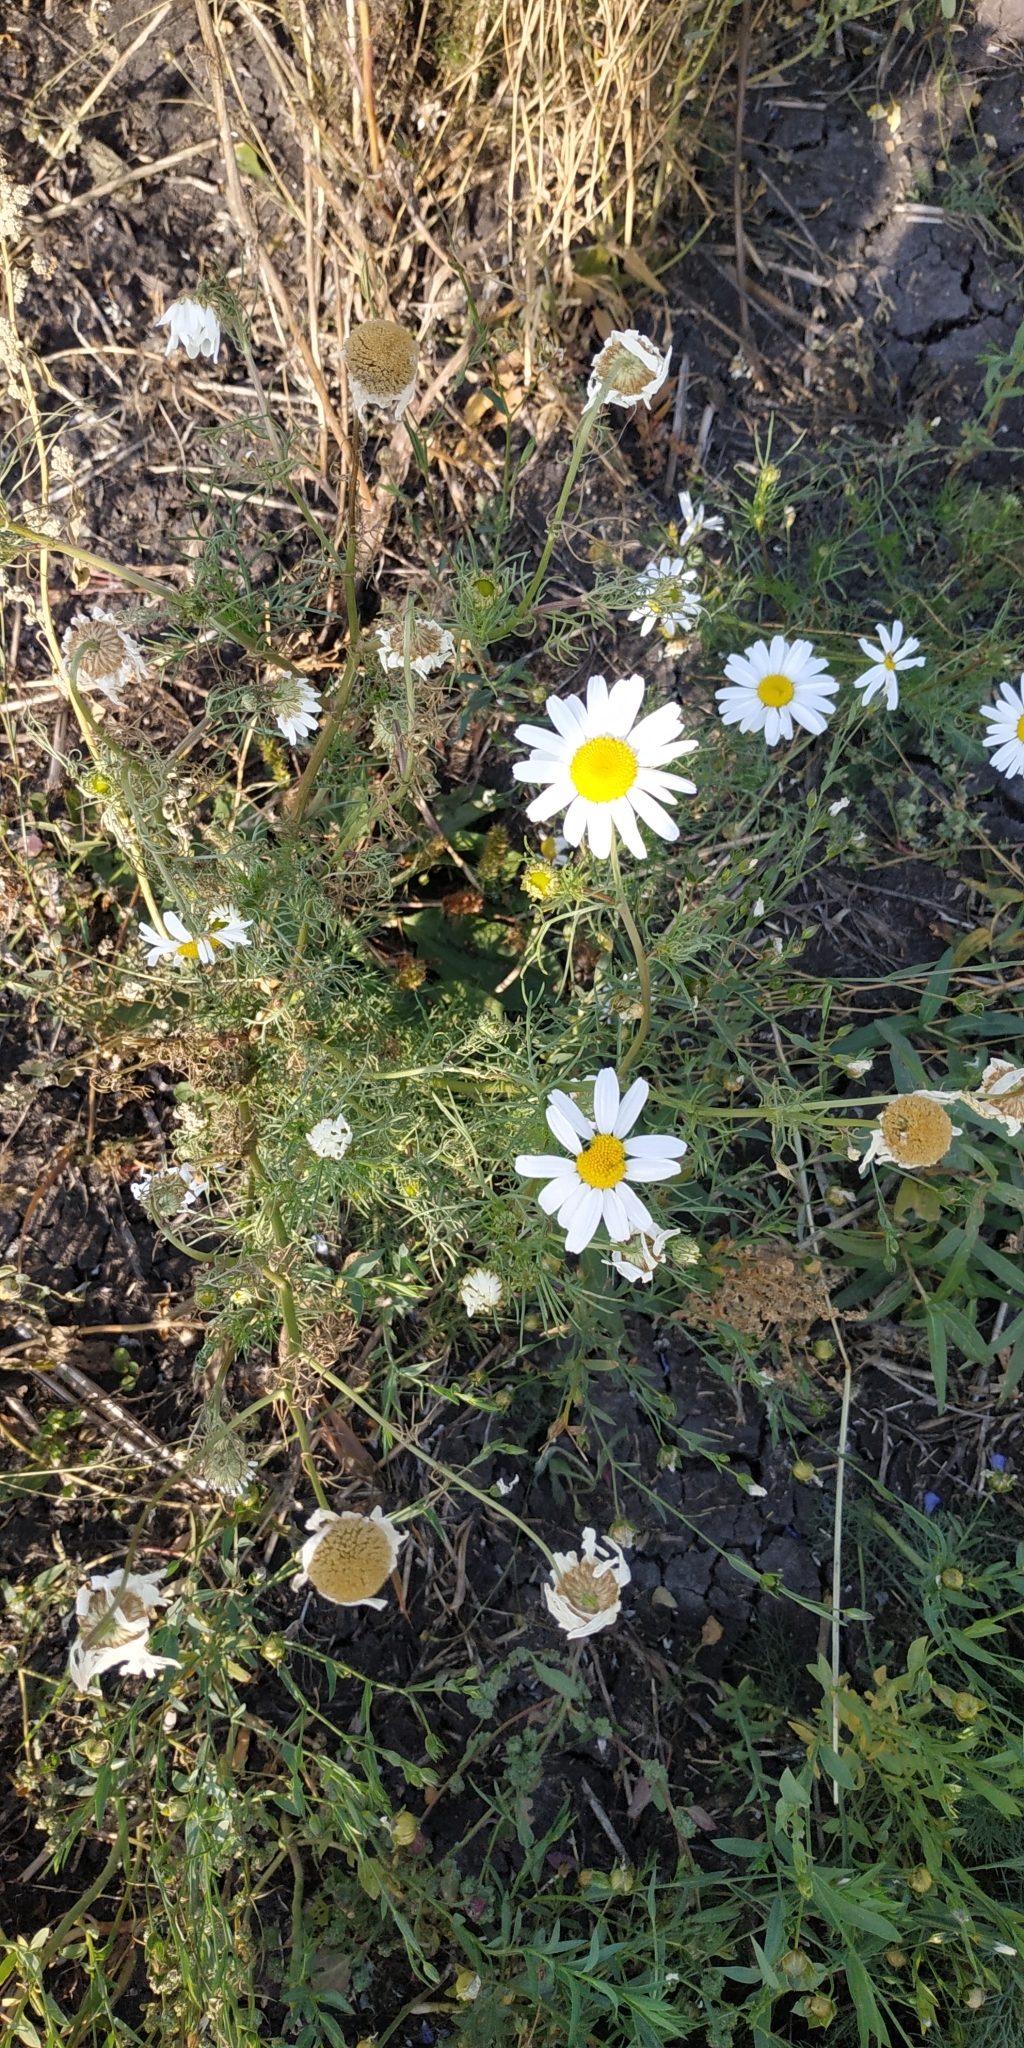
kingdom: Plantae
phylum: Tracheophyta
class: Magnoliopsida
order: Asterales
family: Asteraceae
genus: Tripleurospermum
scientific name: Tripleurospermum inodorum
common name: Scentless mayweed
